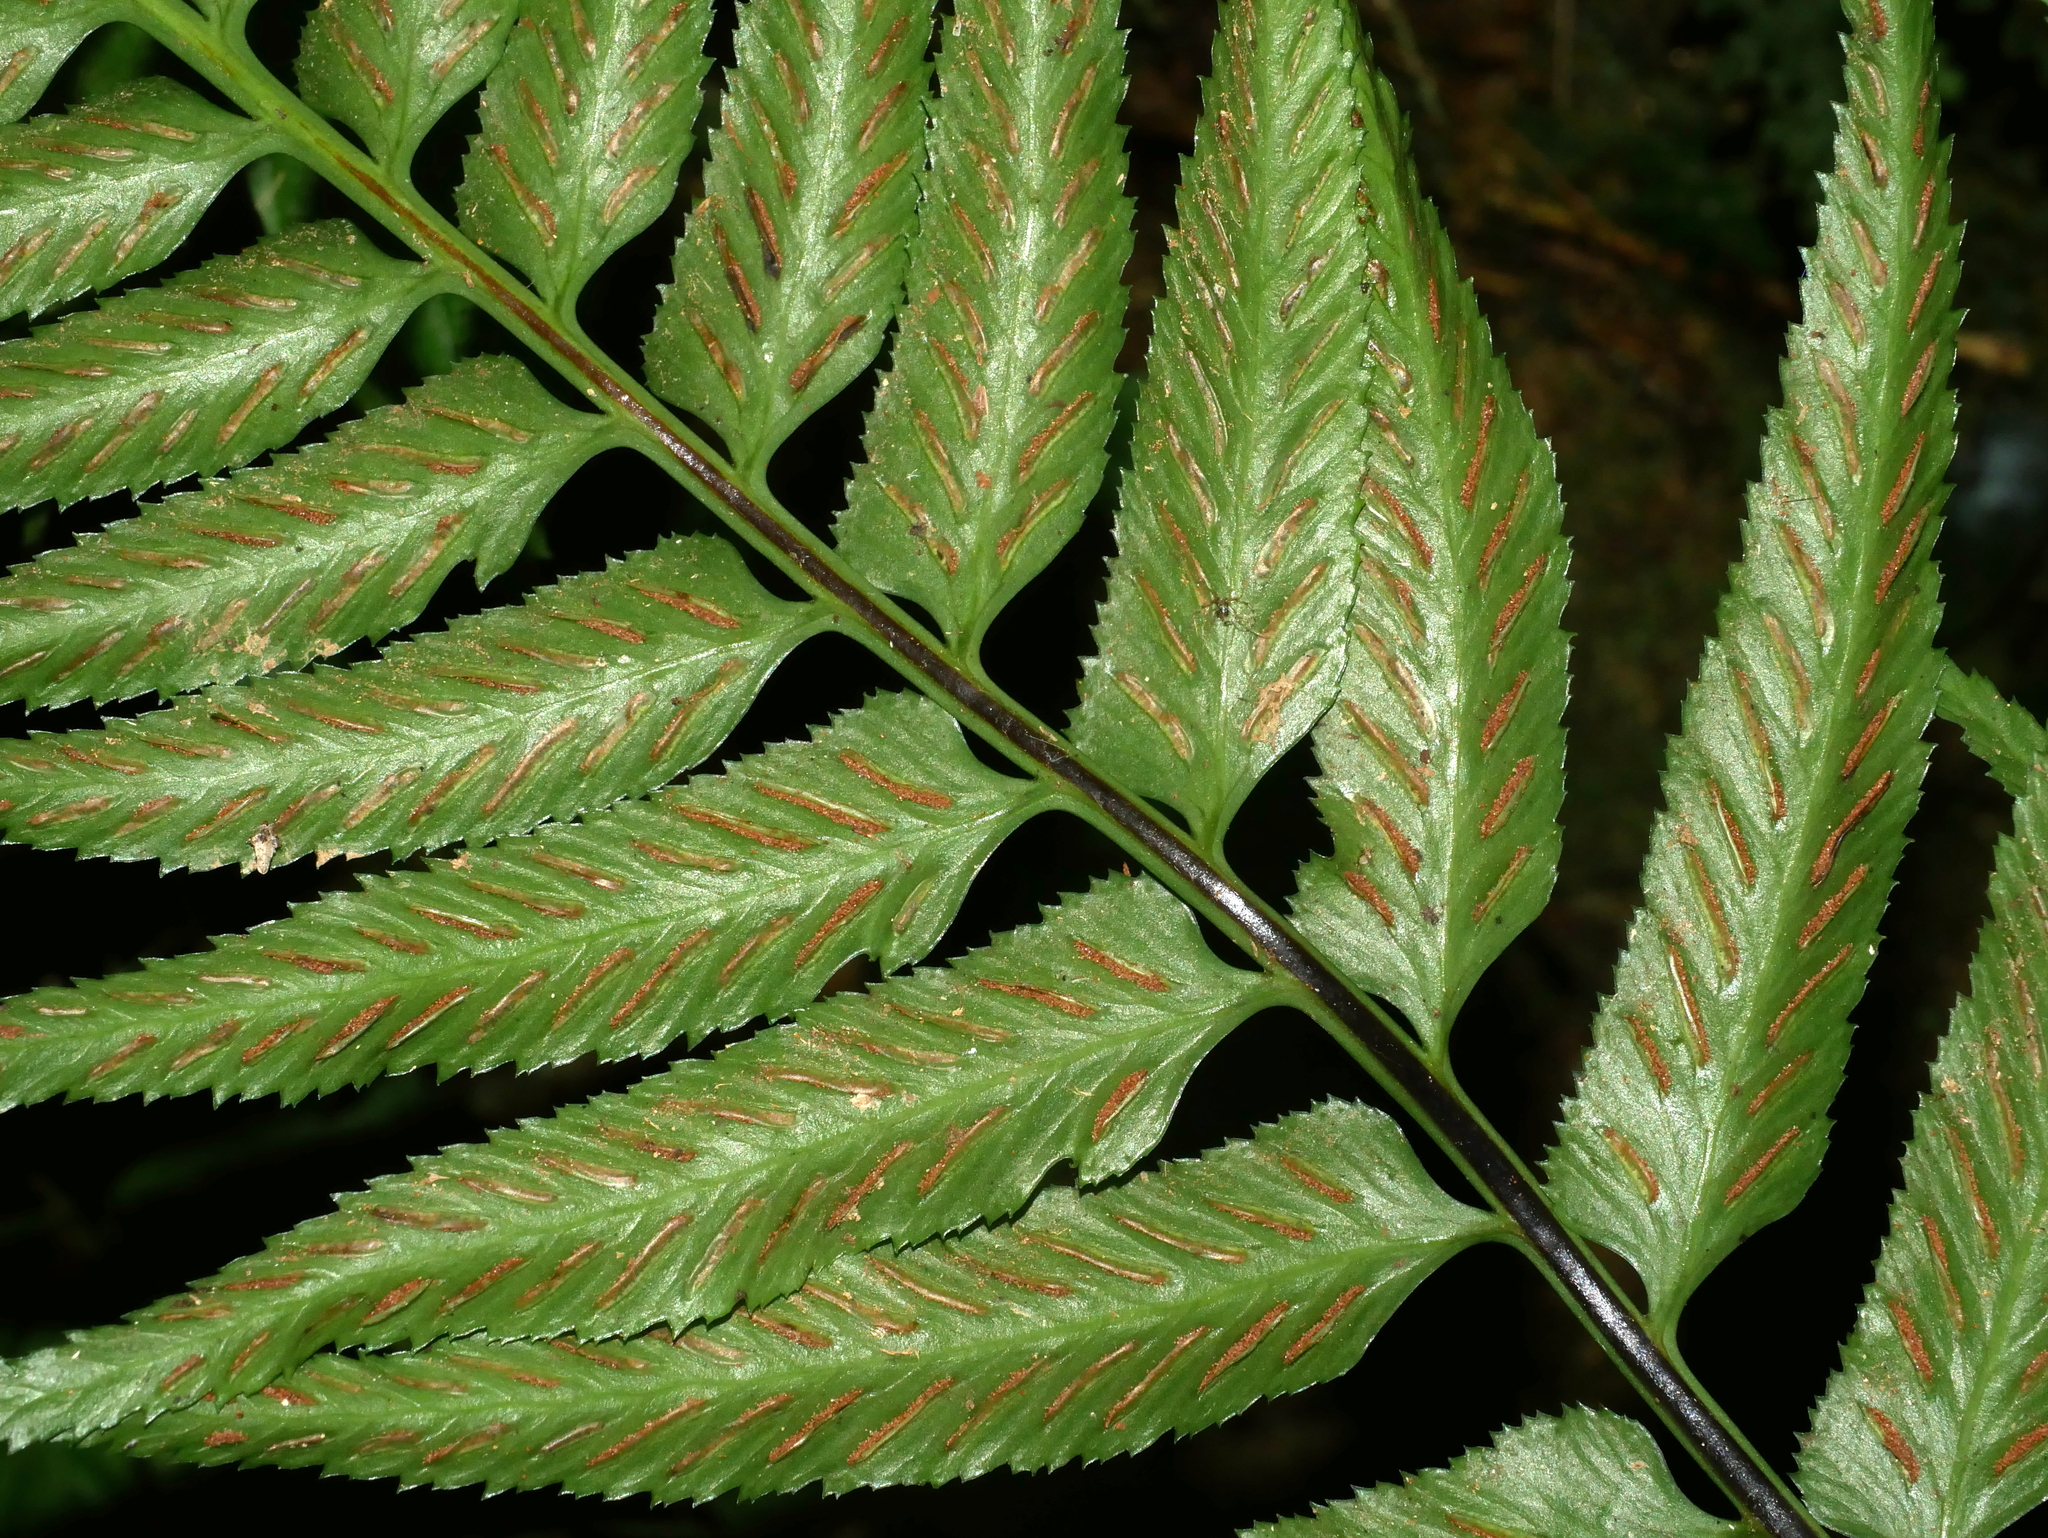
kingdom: Plantae
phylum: Tracheophyta
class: Polypodiopsida
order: Polypodiales
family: Aspleniaceae
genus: Asplenium
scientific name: Asplenium wrightii
